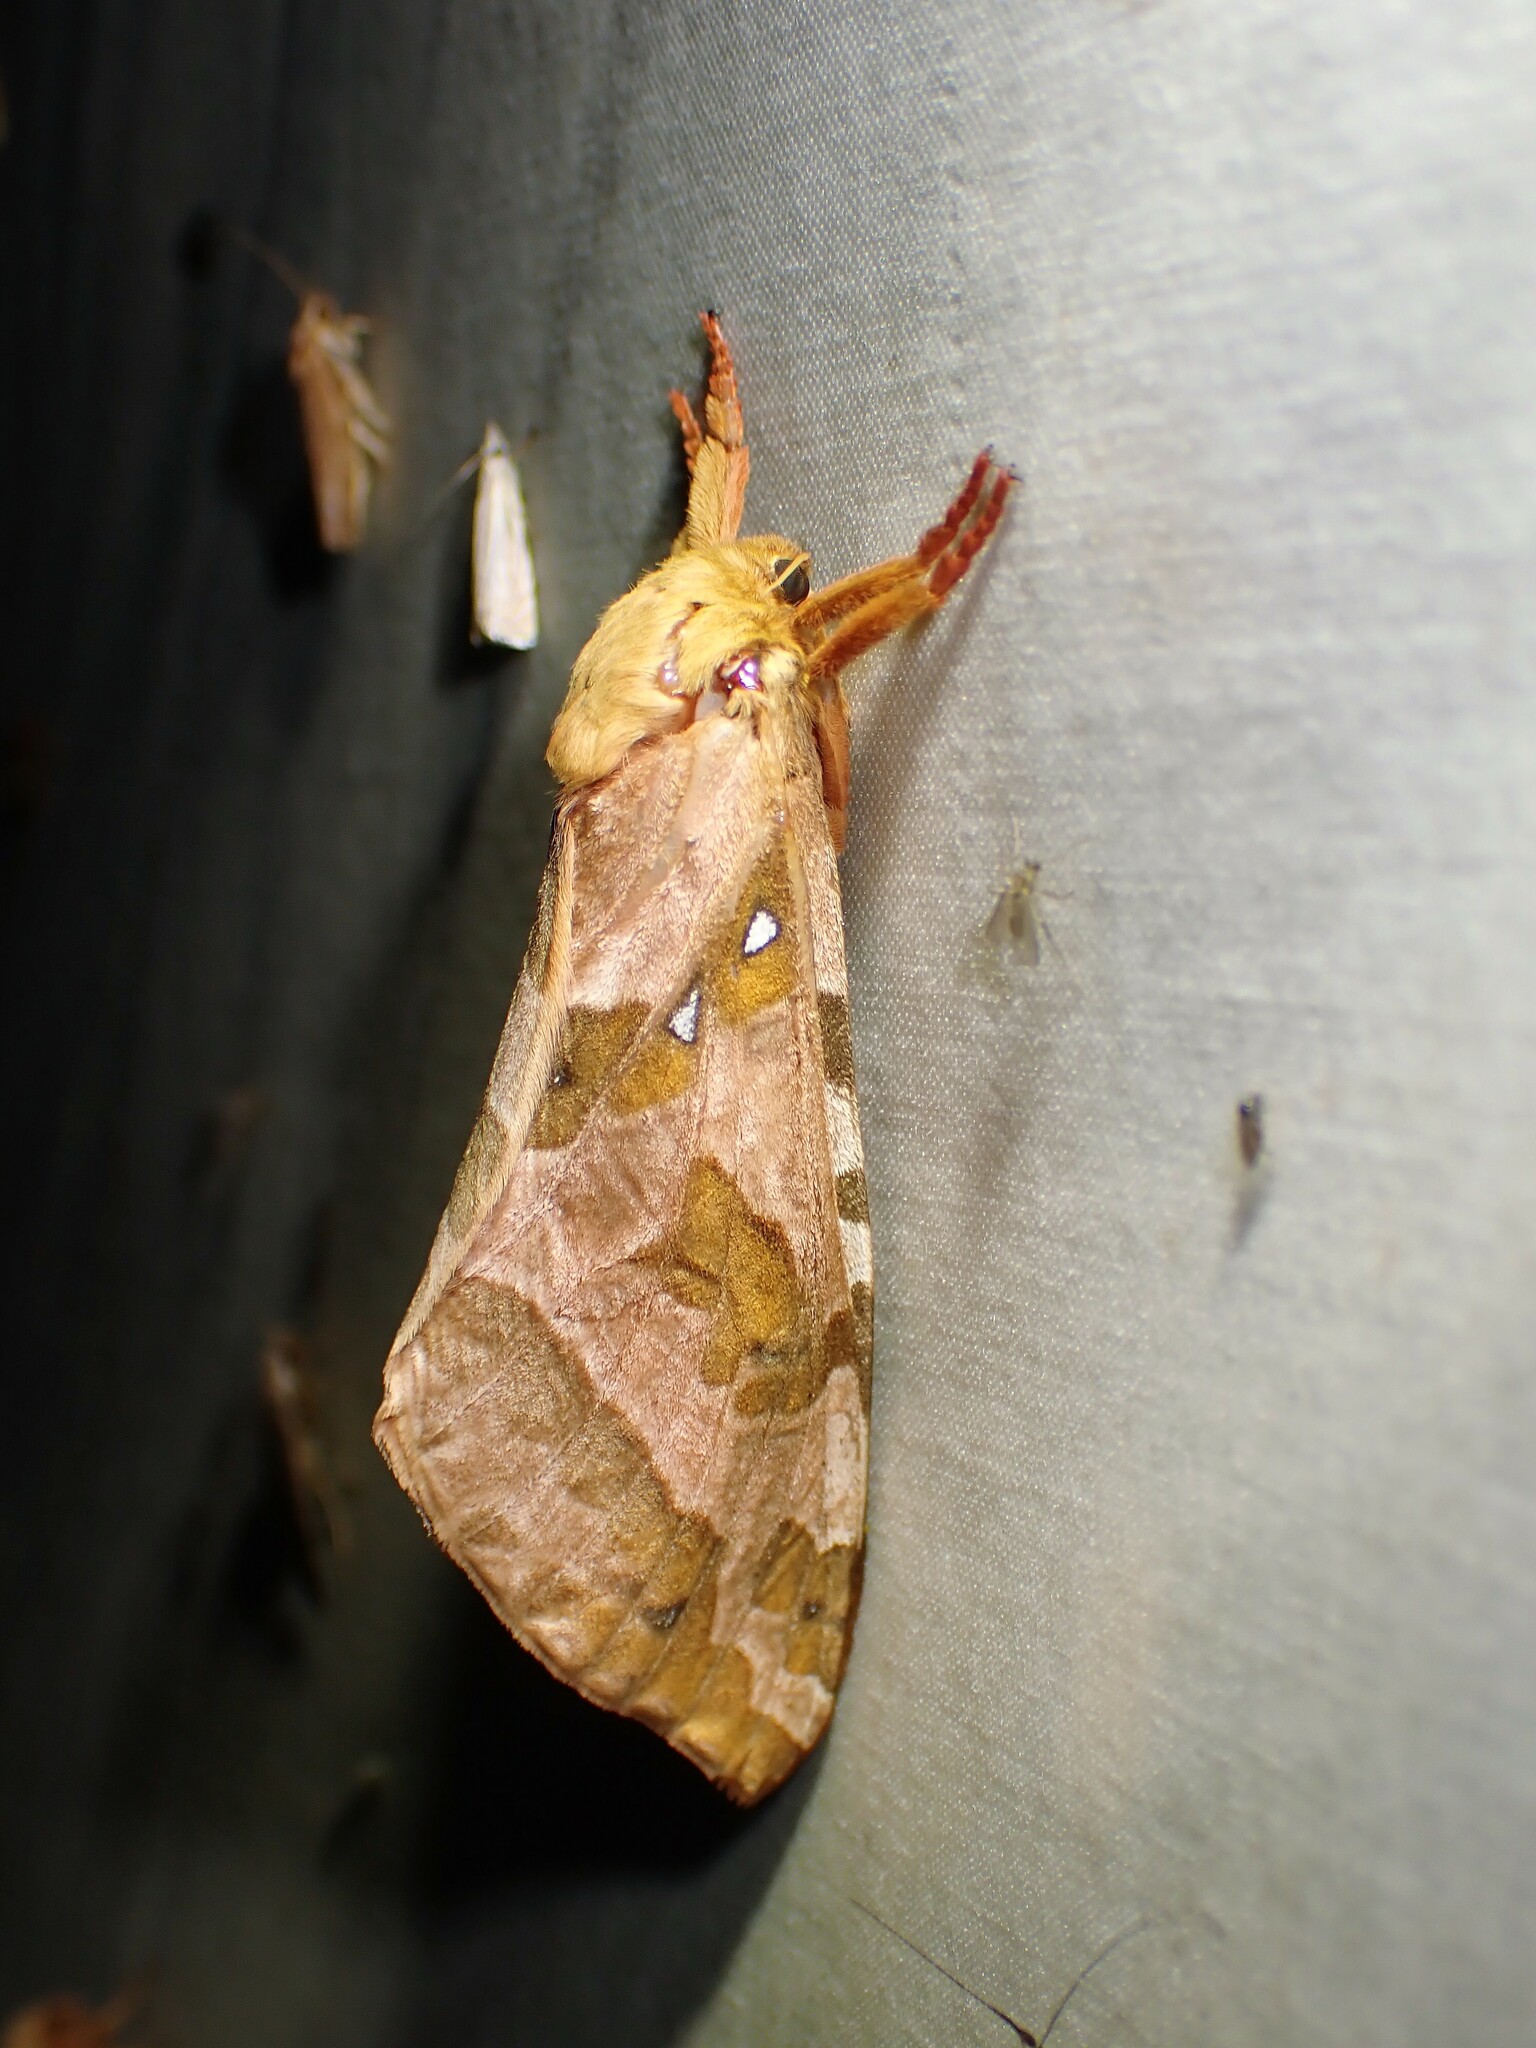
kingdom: Animalia
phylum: Arthropoda
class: Insecta
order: Lepidoptera
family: Hepialidae
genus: Sthenopis
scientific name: Sthenopis purpurascens
